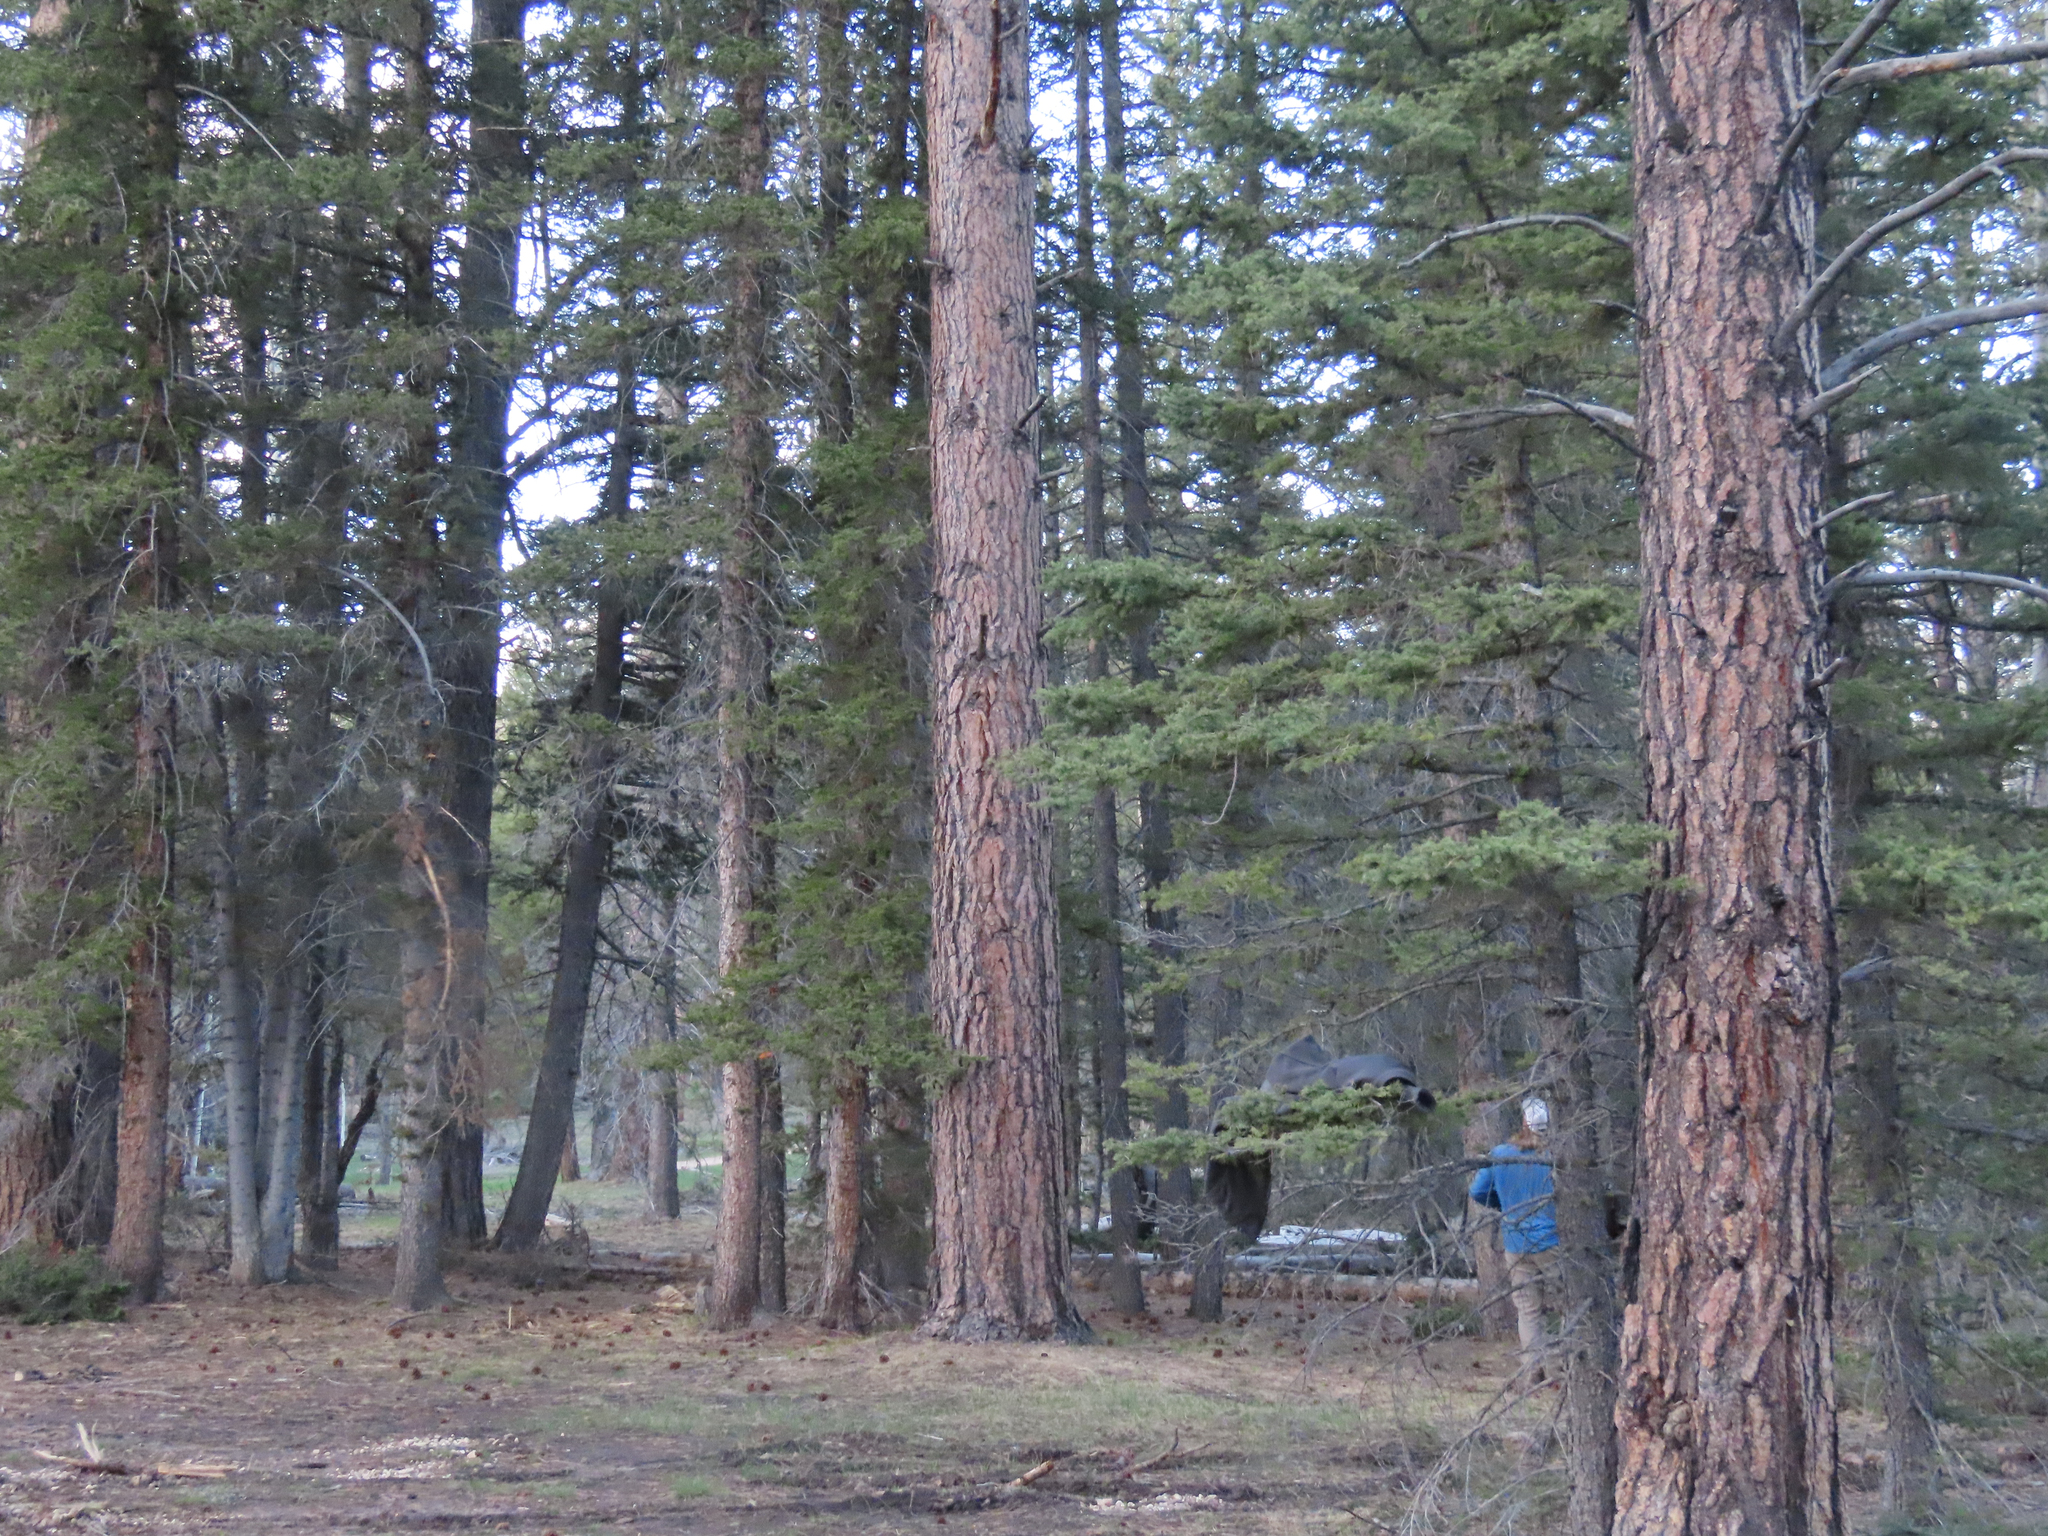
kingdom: Animalia
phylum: Chordata
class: Aves
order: Piciformes
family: Picidae
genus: Picoides
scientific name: Picoides dorsalis
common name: American three-toed woodpecker
